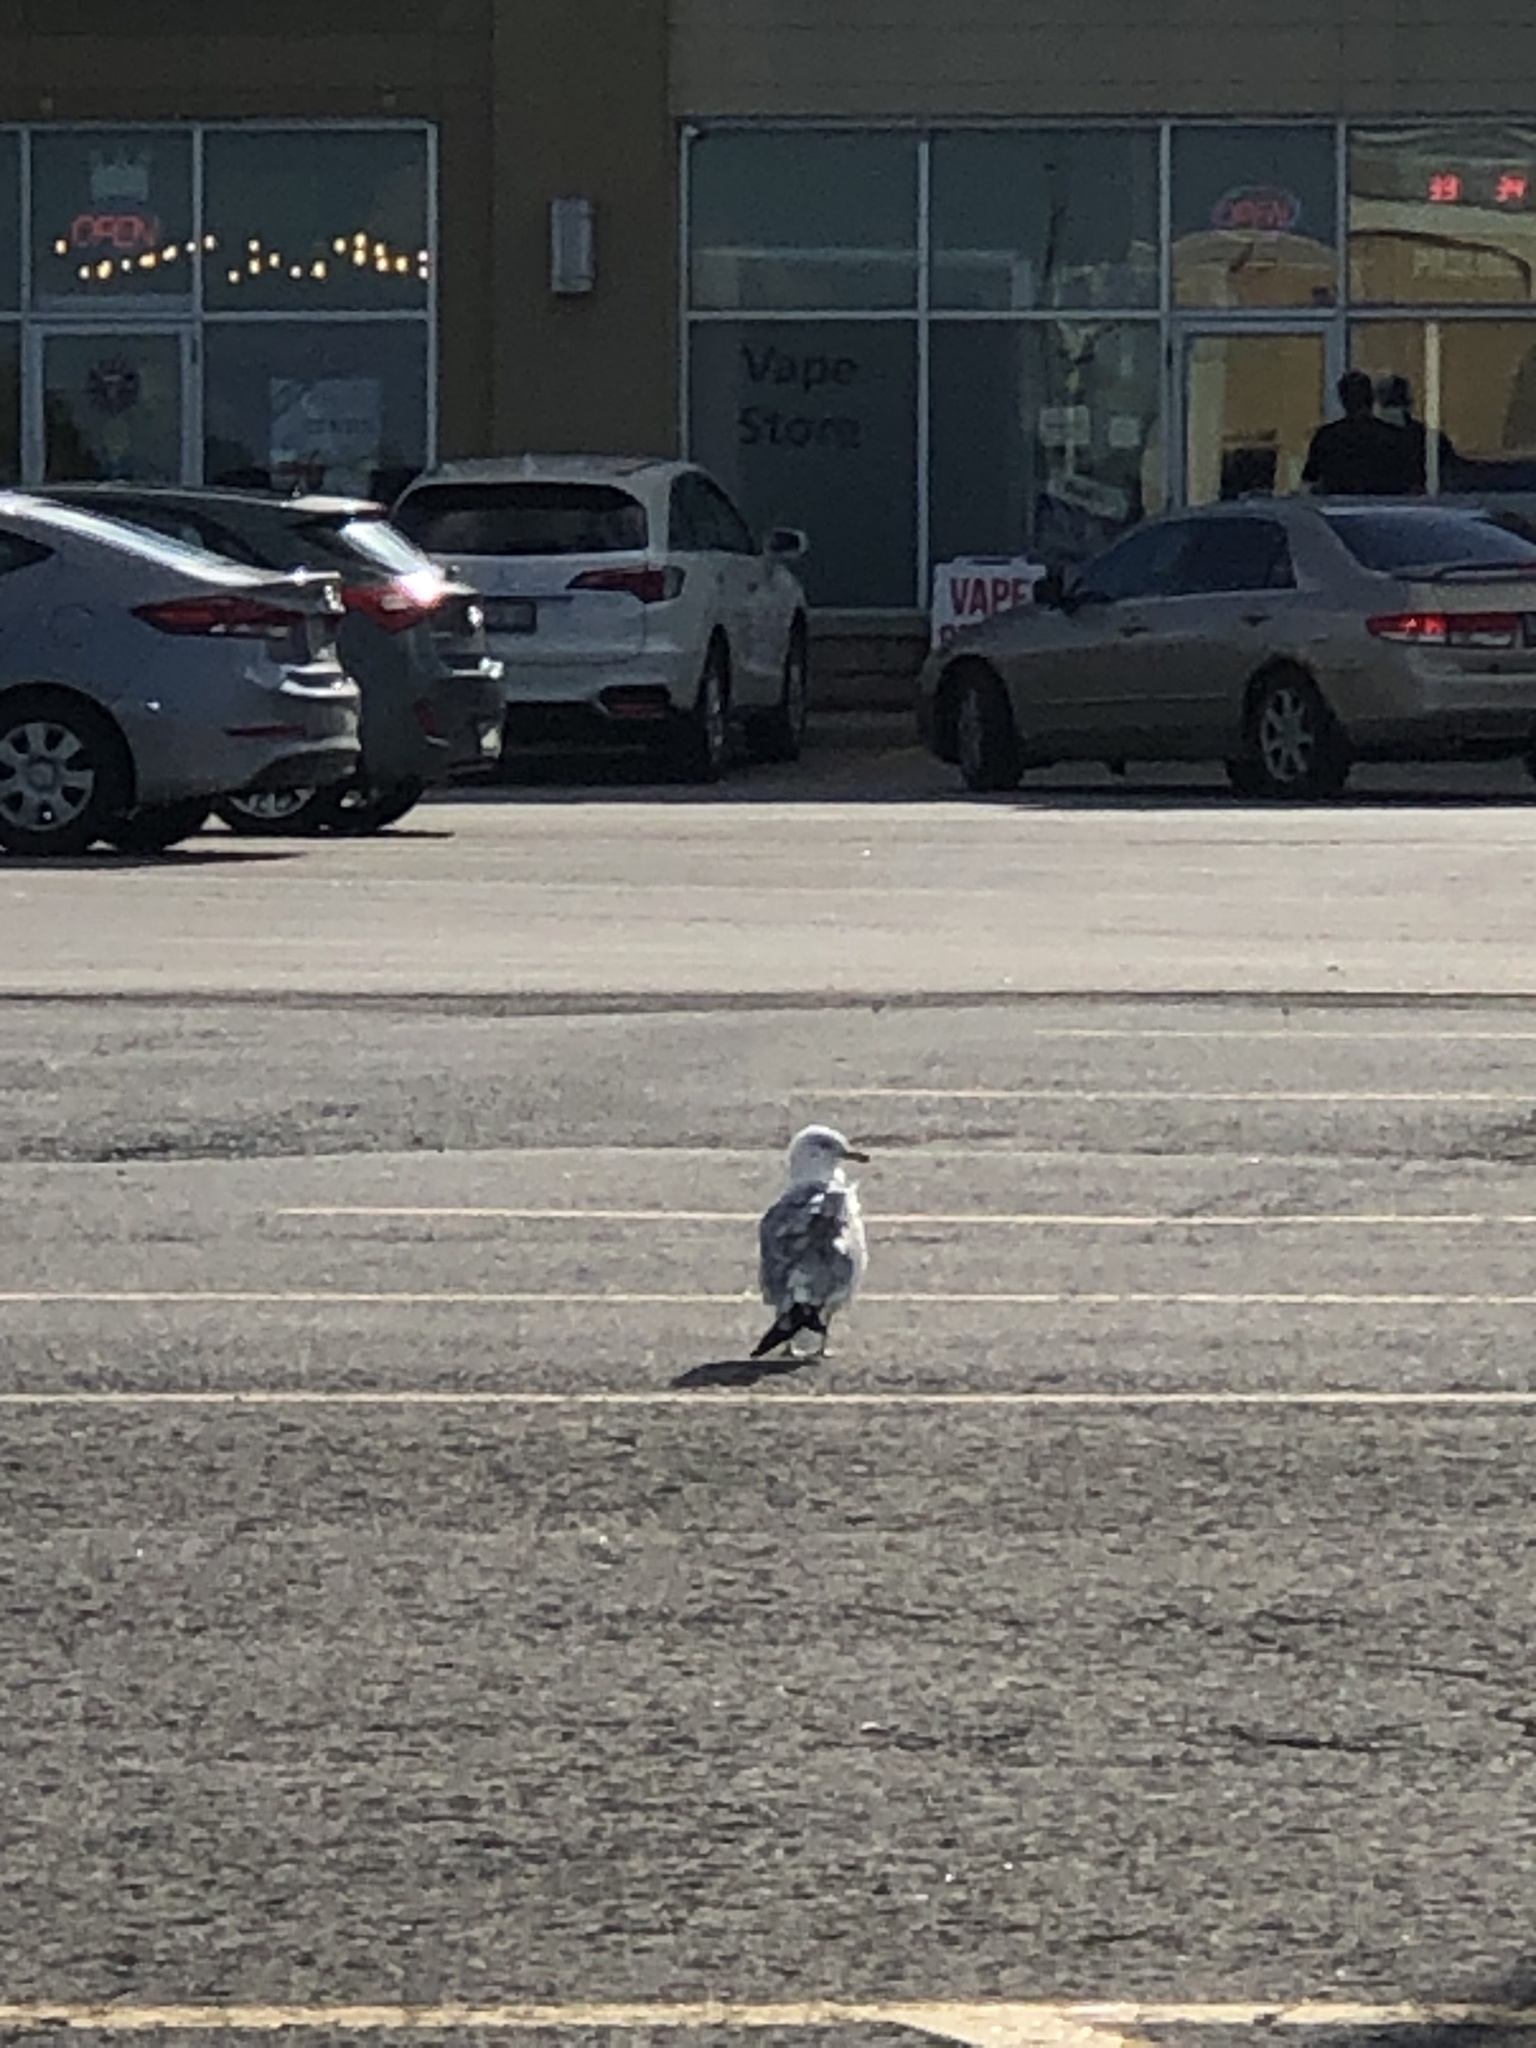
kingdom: Animalia
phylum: Chordata
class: Aves
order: Charadriiformes
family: Laridae
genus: Larus
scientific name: Larus delawarensis
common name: Ring-billed gull
